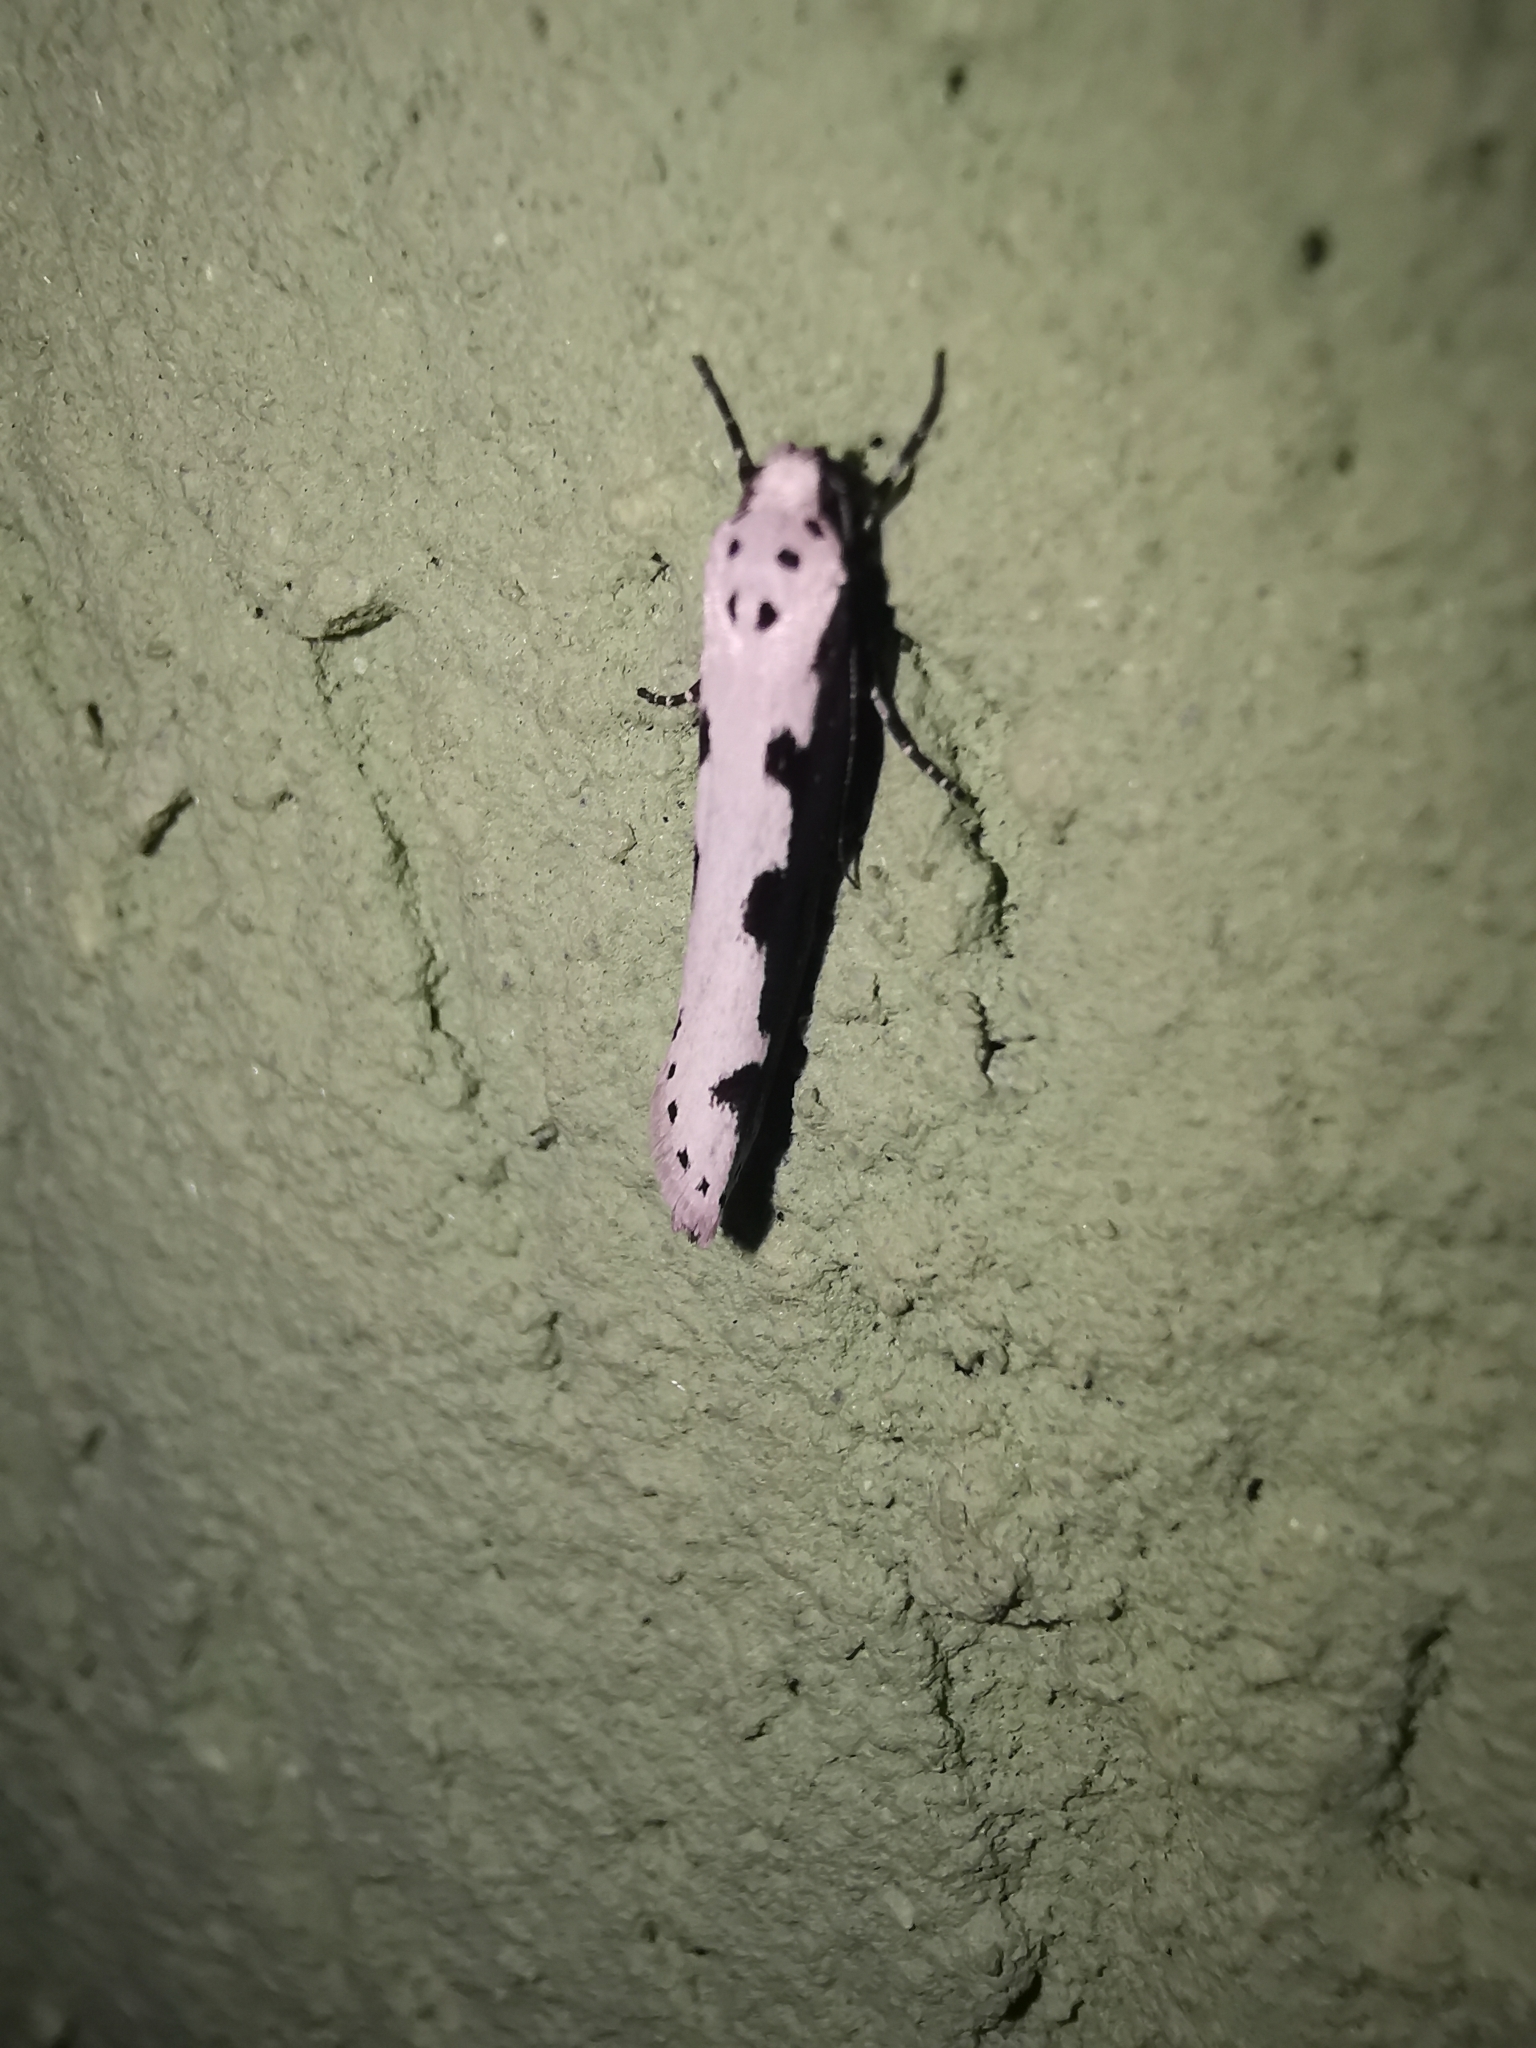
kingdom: Animalia
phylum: Arthropoda
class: Insecta
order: Lepidoptera
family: Ethmiidae
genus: Ethmia
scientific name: Ethmia bipunctella
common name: Bordered ermel
